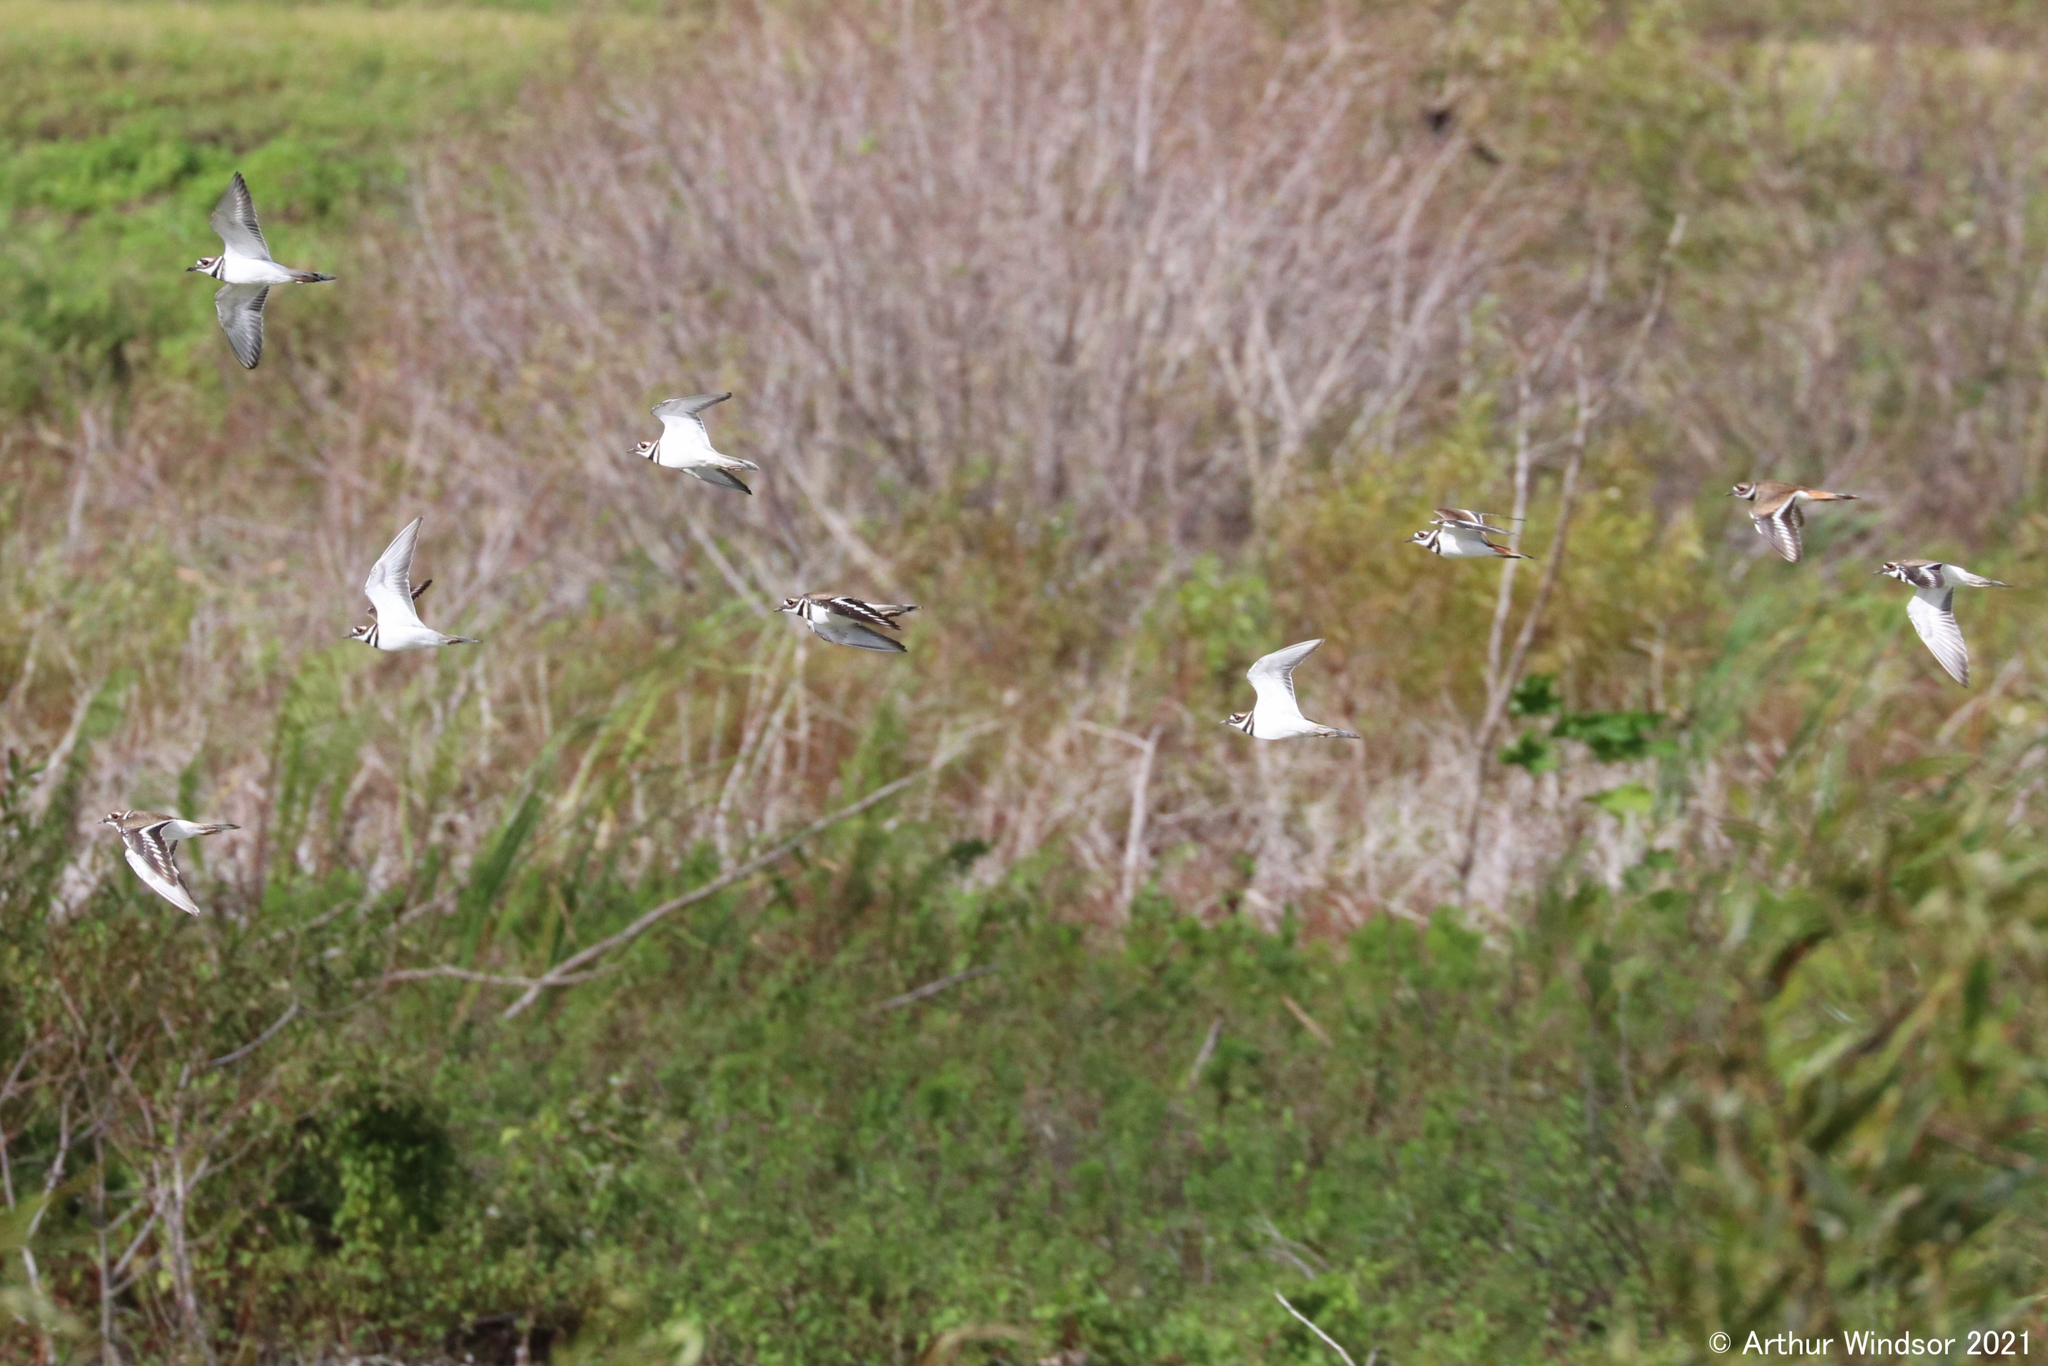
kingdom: Animalia
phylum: Chordata
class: Aves
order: Charadriiformes
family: Charadriidae
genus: Charadrius
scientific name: Charadrius vociferus
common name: Killdeer
